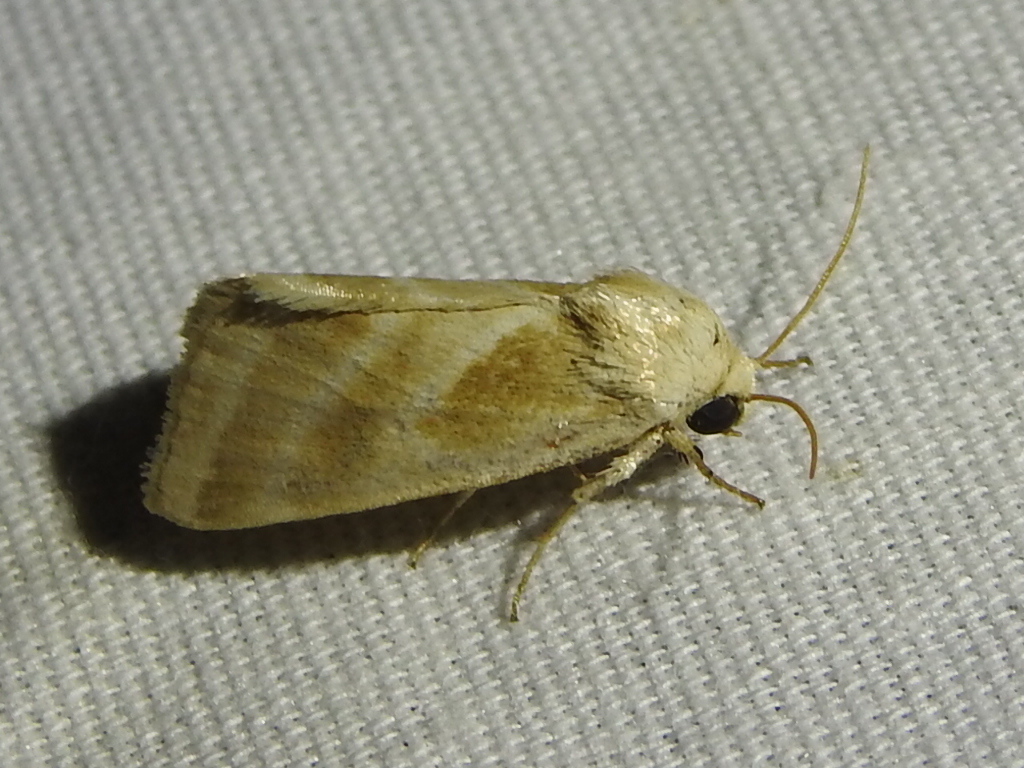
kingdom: Animalia
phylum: Arthropoda
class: Insecta
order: Lepidoptera
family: Noctuidae
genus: Schinia
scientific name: Schinia trifascia
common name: Three-lined flower moth
